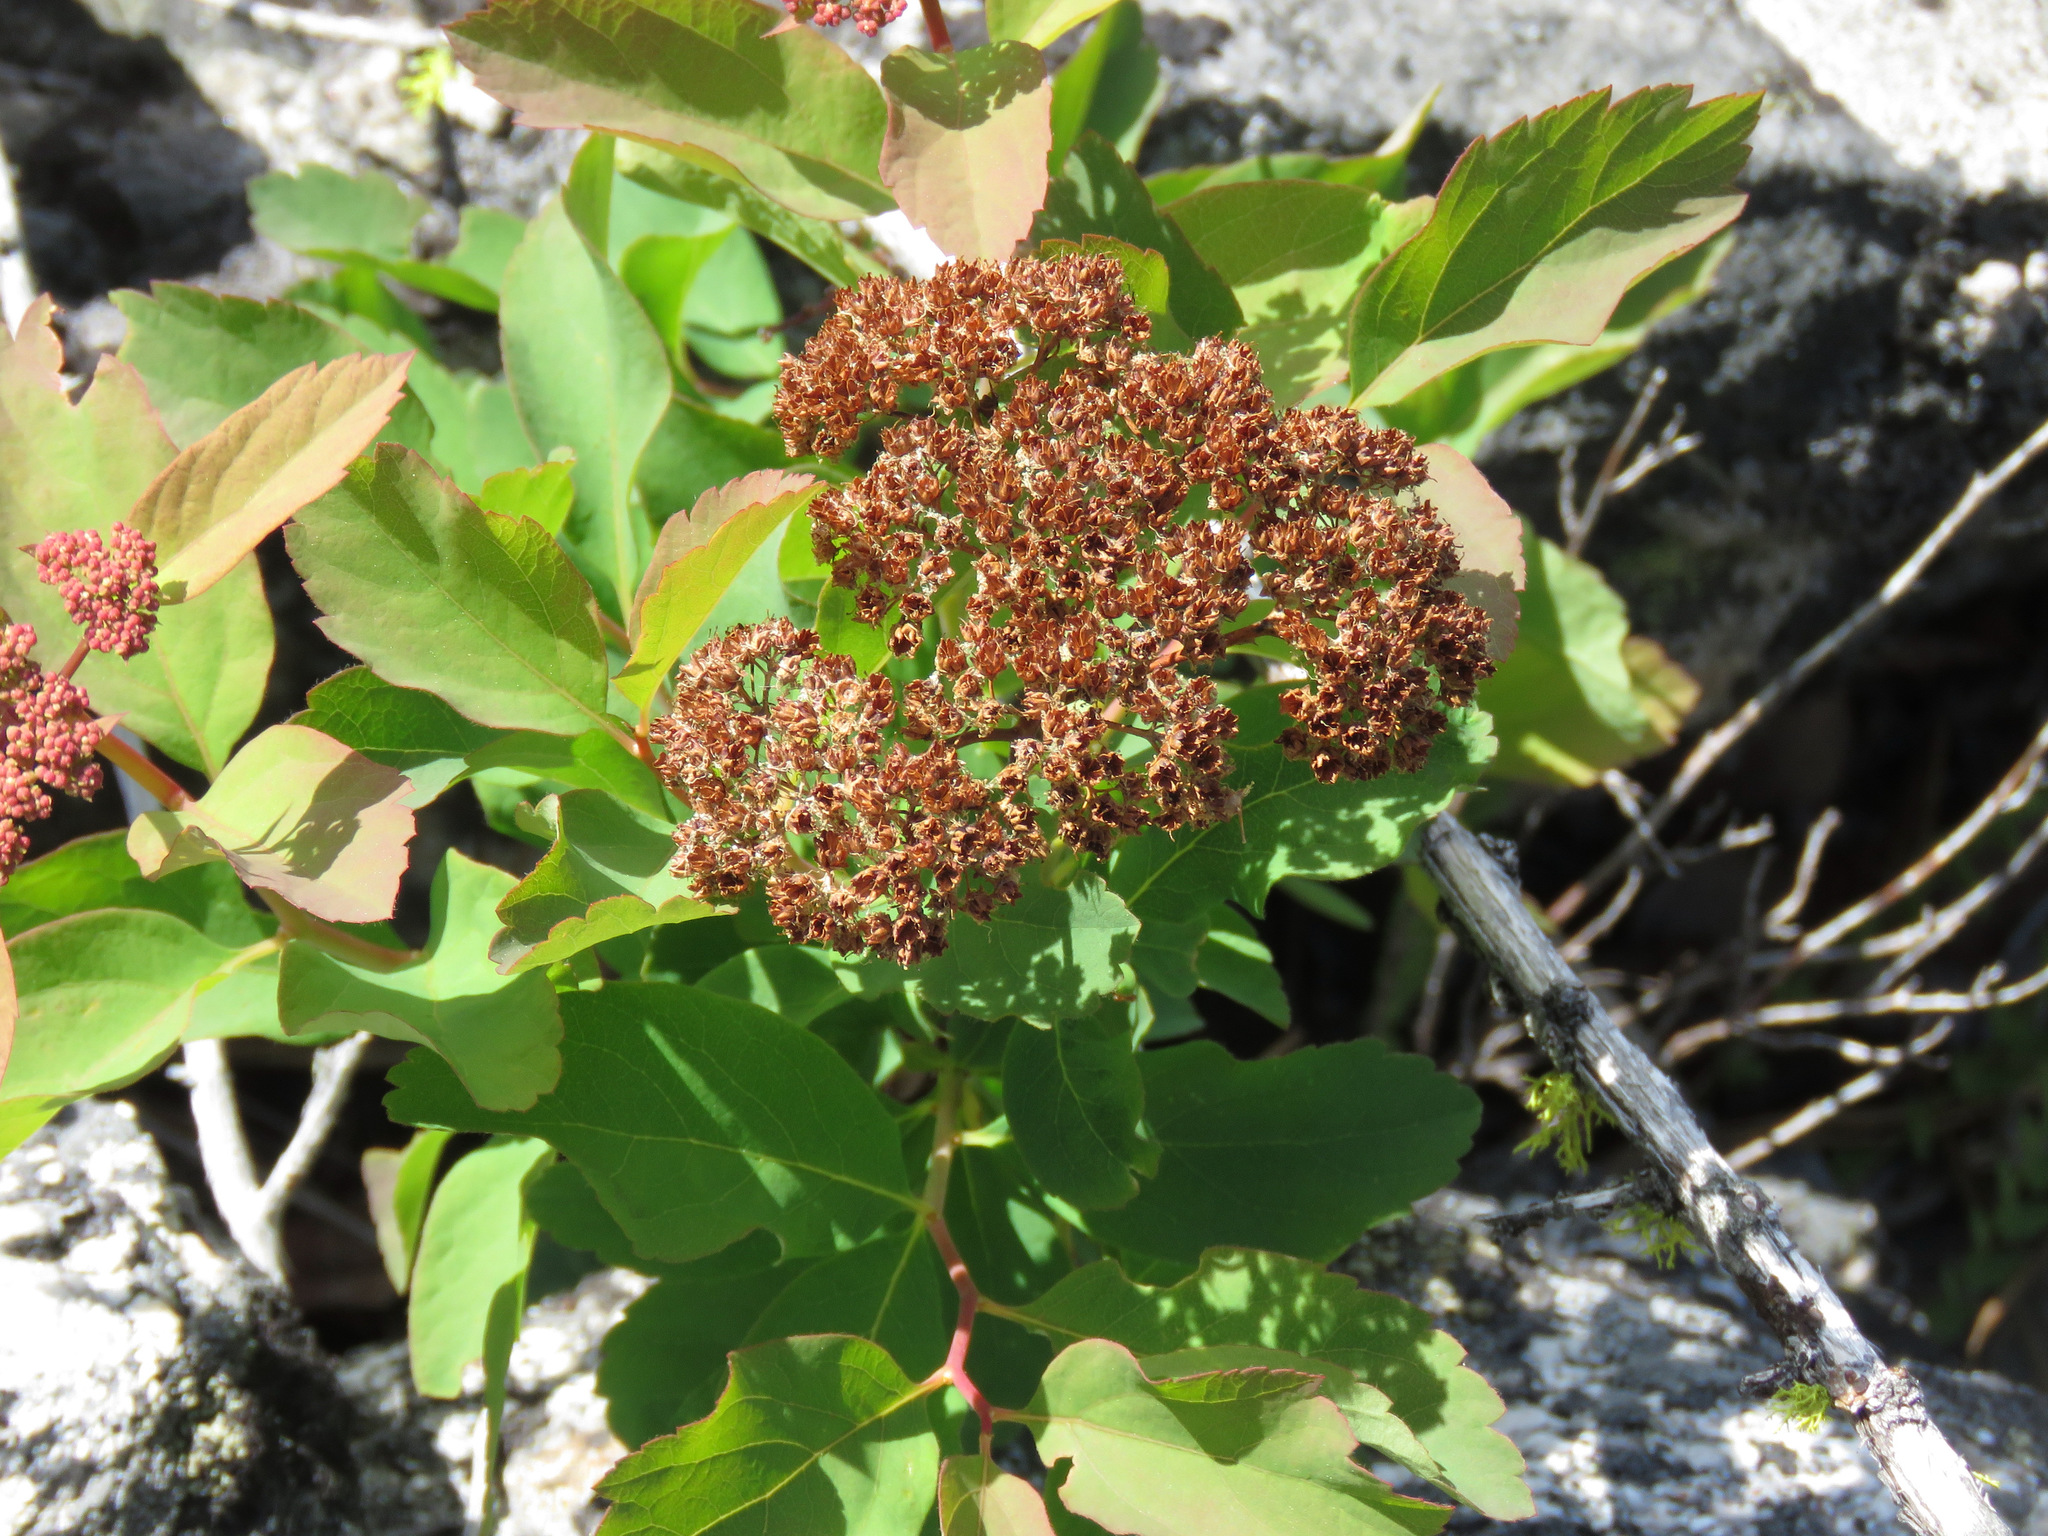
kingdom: Plantae
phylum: Tracheophyta
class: Magnoliopsida
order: Rosales
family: Rosaceae
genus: Spiraea
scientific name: Spiraea lucida
